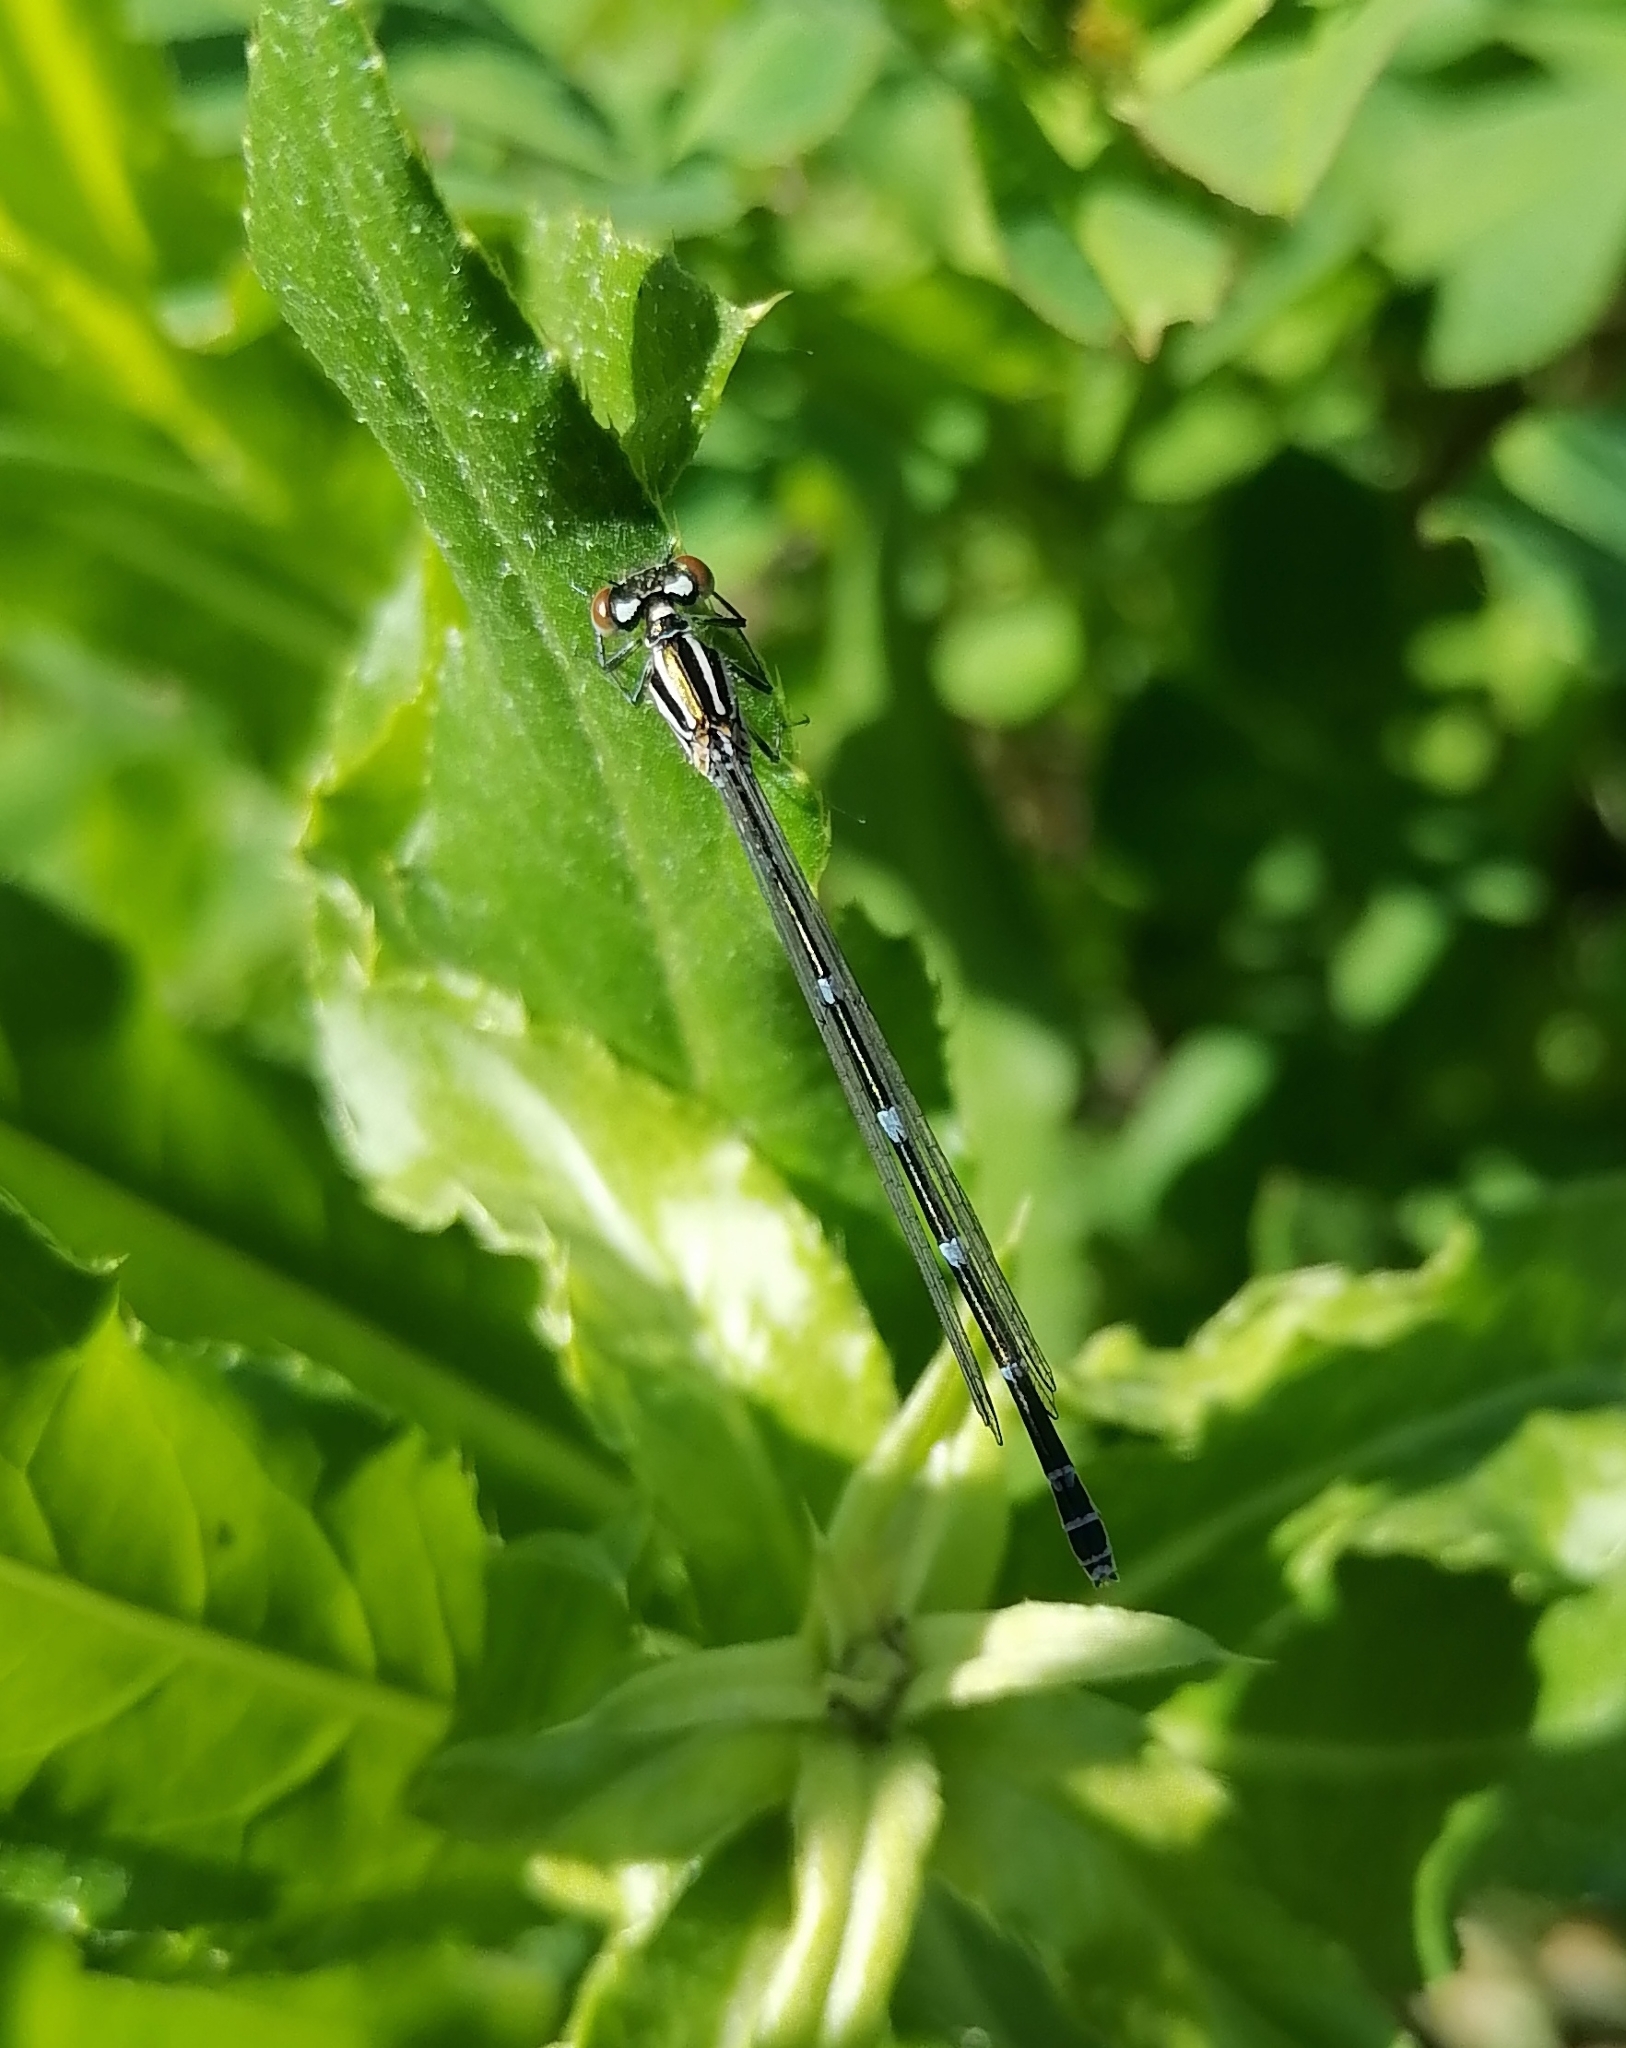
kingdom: Animalia
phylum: Arthropoda
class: Insecta
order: Odonata
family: Coenagrionidae
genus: Coenagrion
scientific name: Coenagrion puella
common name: Azure damselfly
